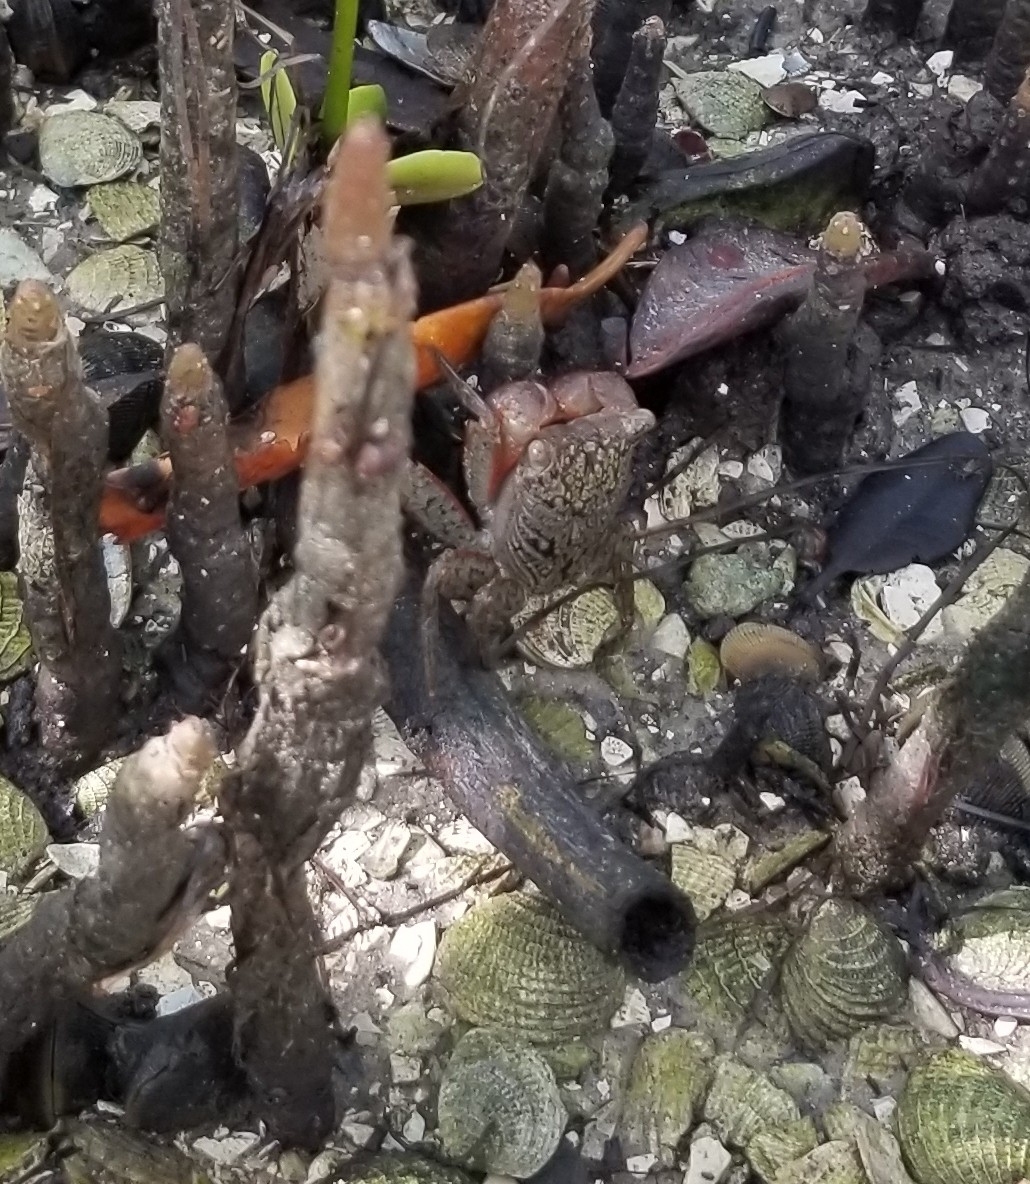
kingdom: Animalia
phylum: Arthropoda
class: Malacostraca
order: Decapoda
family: Sesarmidae
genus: Aratus
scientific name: Aratus pisonii
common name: Mangrove crab
